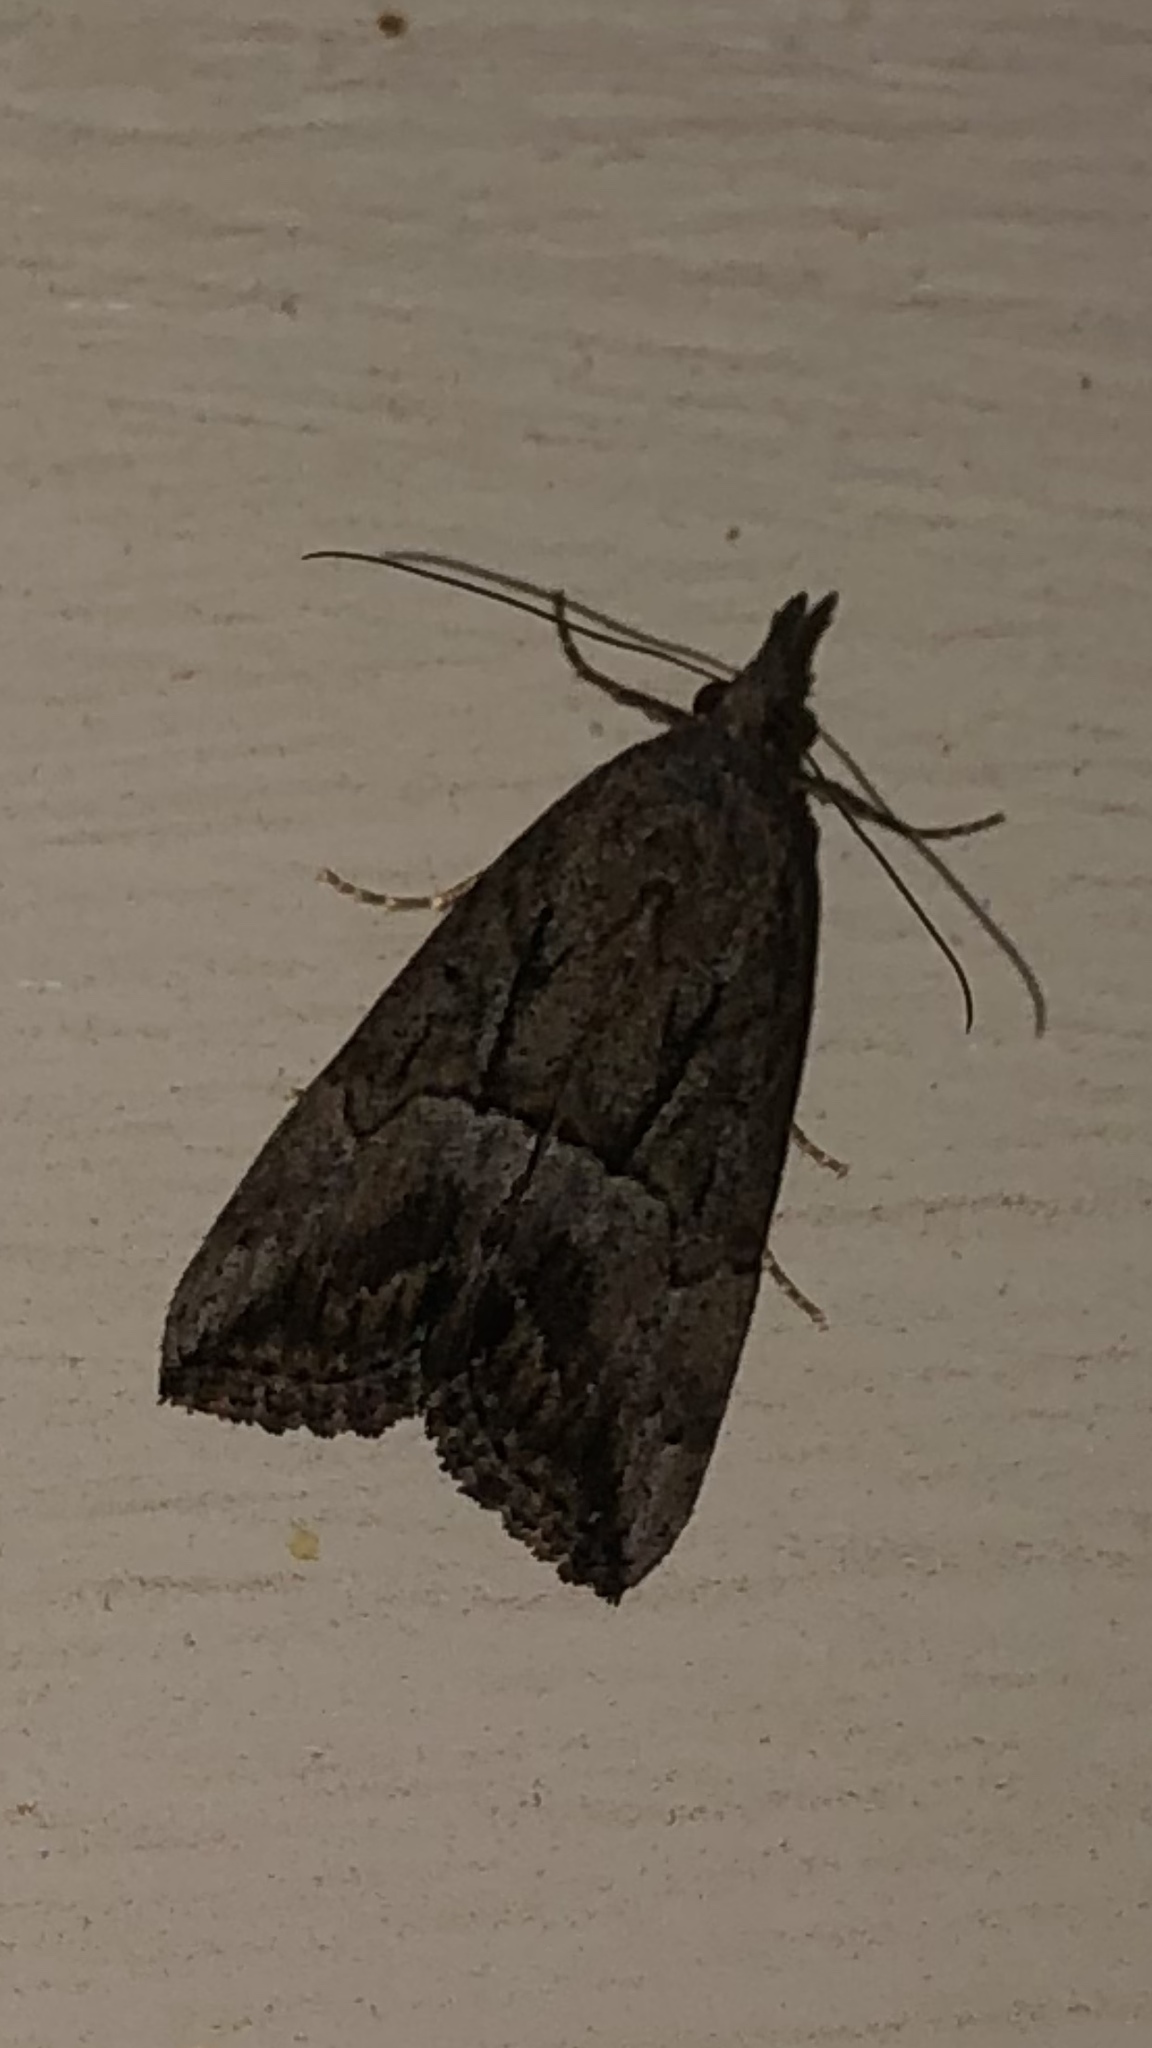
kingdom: Animalia
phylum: Arthropoda
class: Insecta
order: Lepidoptera
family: Erebidae
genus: Hypena
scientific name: Hypena scabra
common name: Green cloverworm
